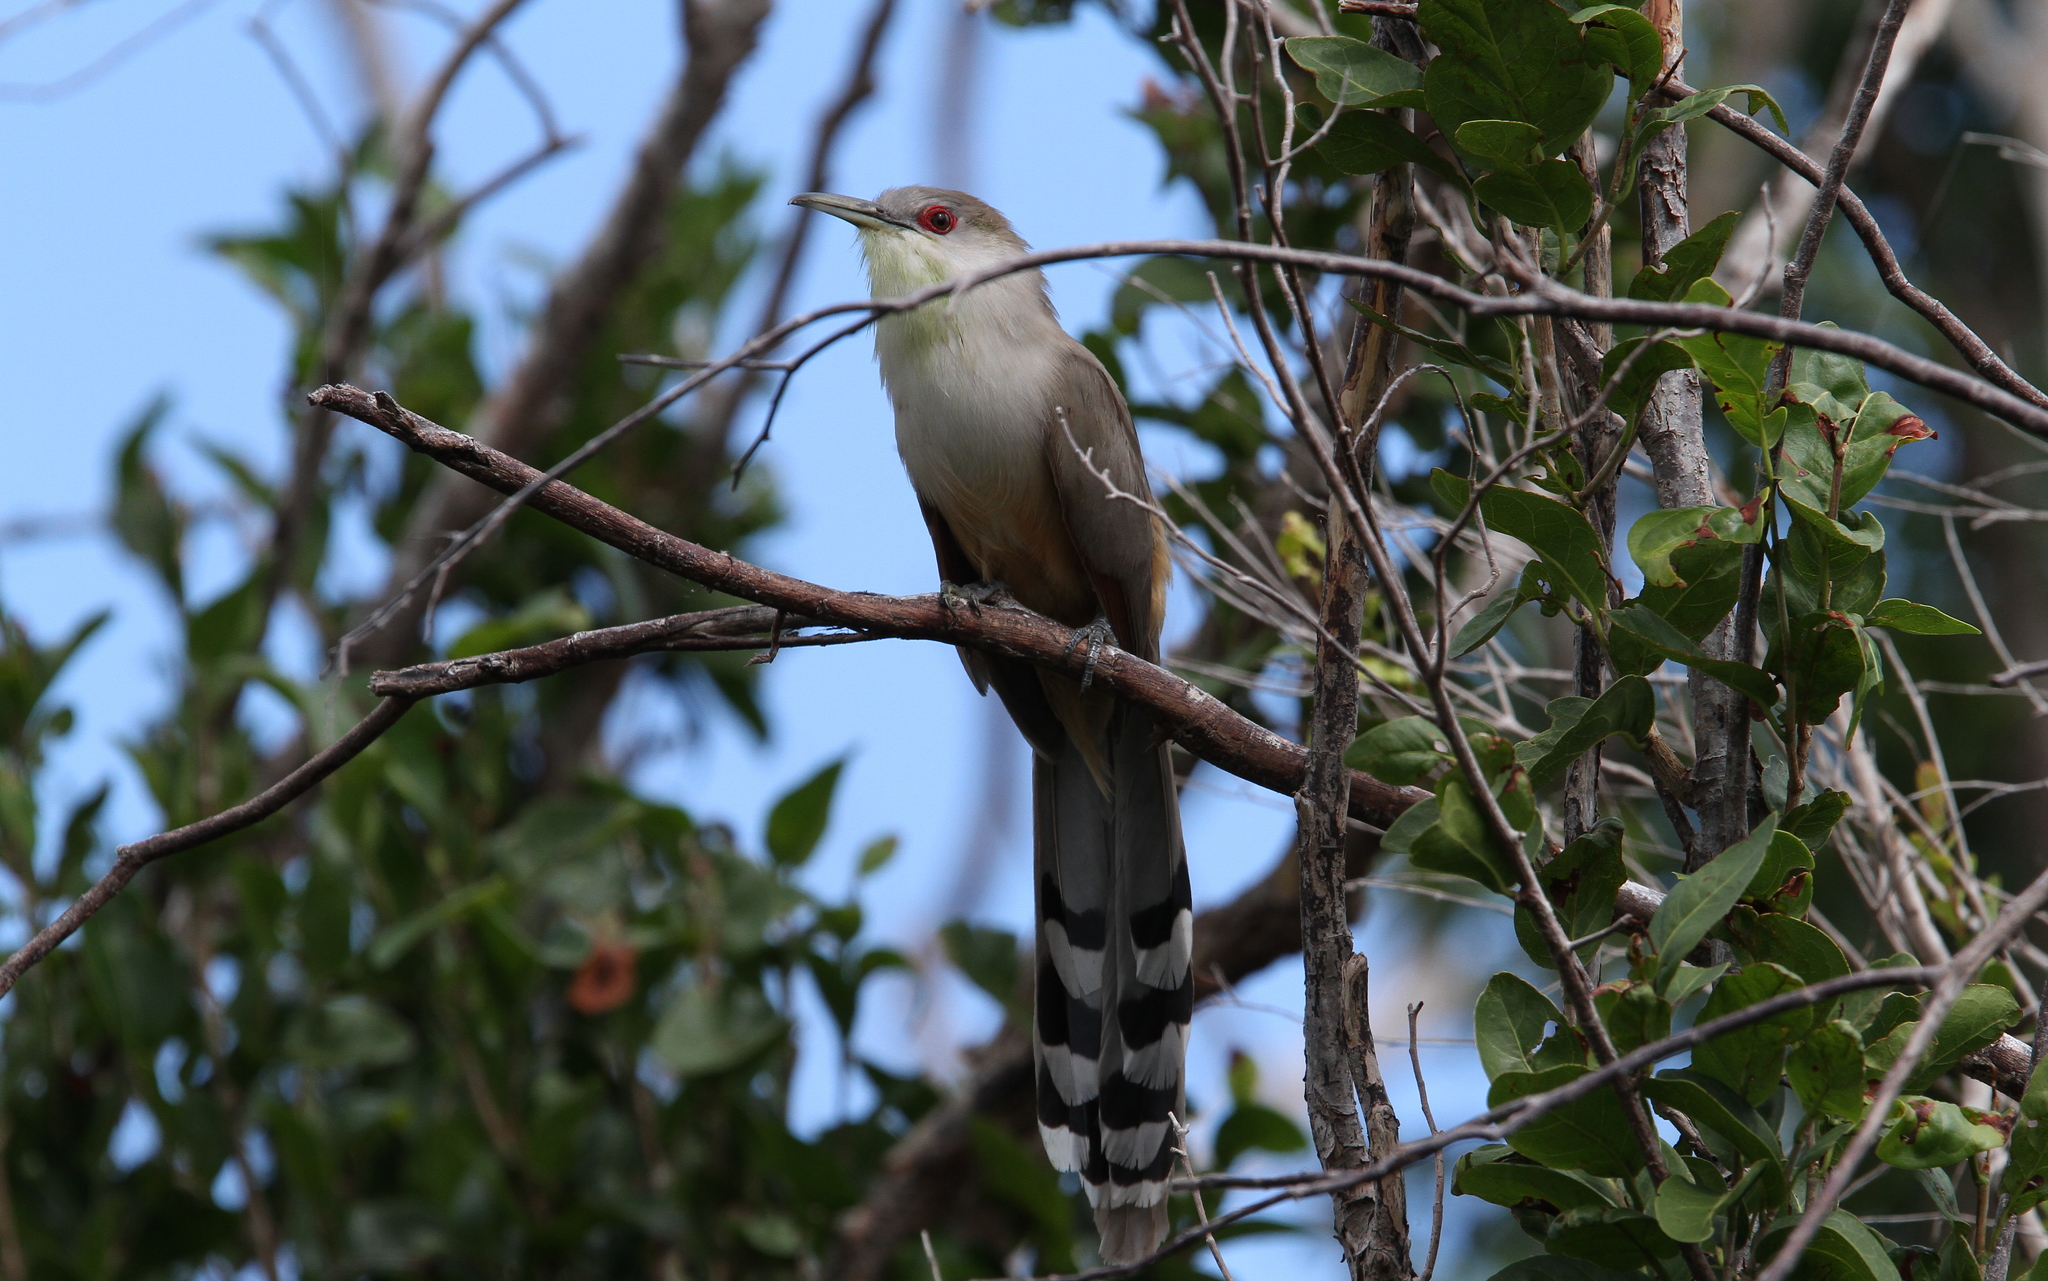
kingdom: Animalia
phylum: Chordata
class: Aves
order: Cuculiformes
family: Cuculidae
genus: Saurothera
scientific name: Saurothera merlini
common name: Great lizard-cuckoo
